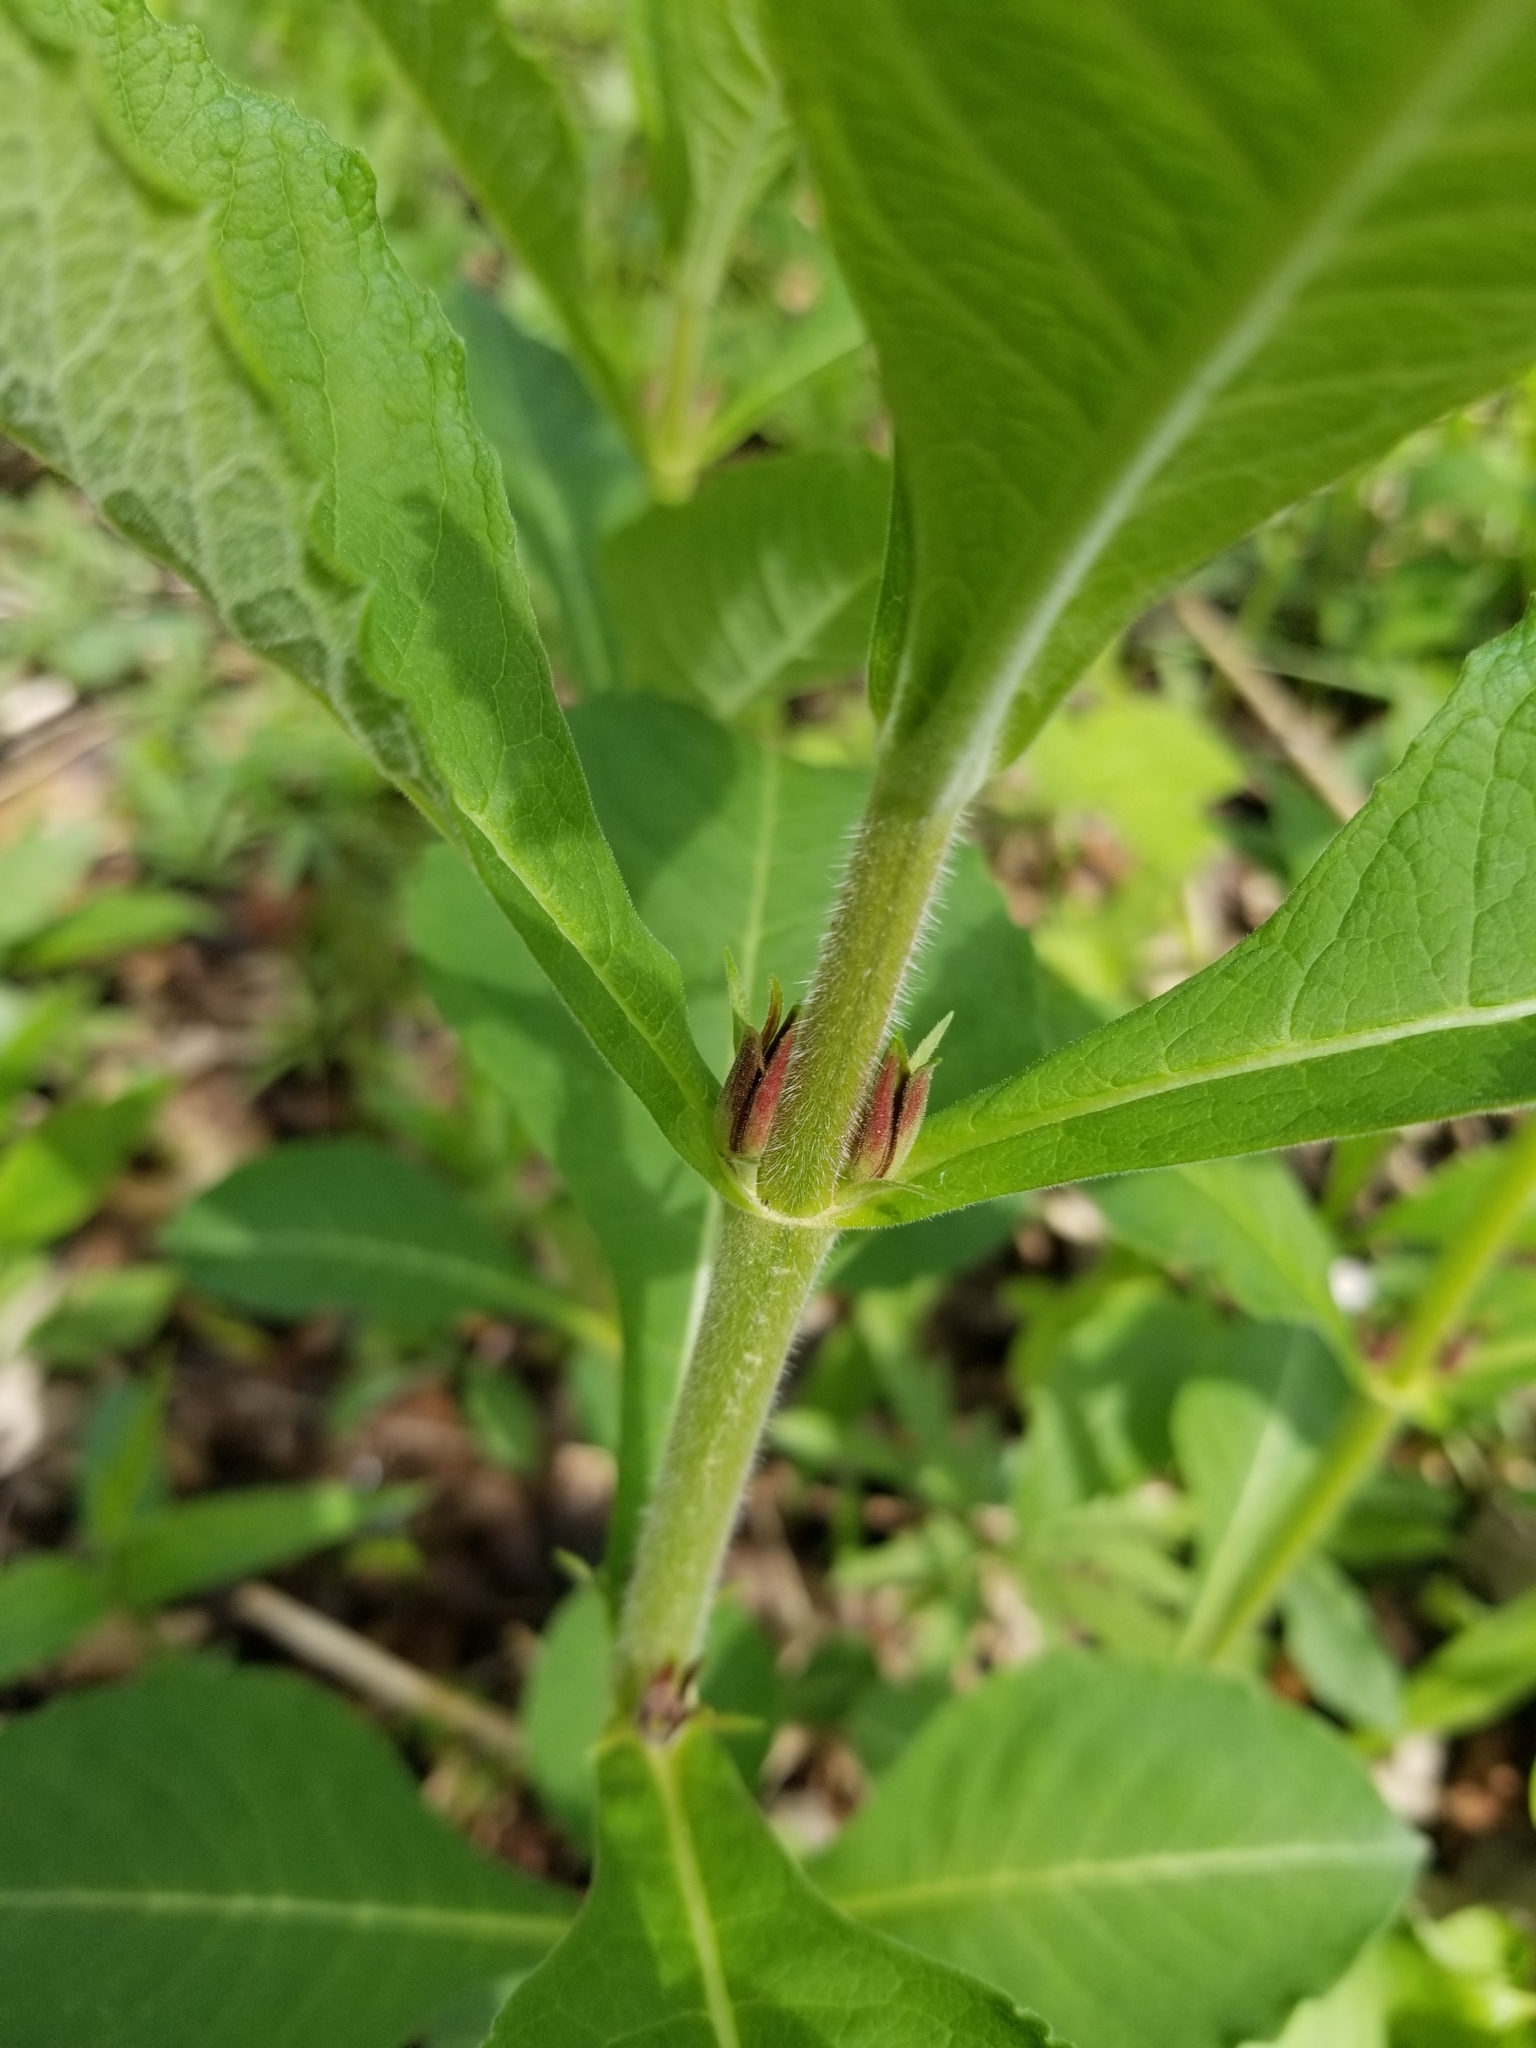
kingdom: Plantae
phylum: Tracheophyta
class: Magnoliopsida
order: Dipsacales
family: Caprifoliaceae
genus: Triosteum
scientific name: Triosteum aurantiacum
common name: Coffee tinker's-weed
